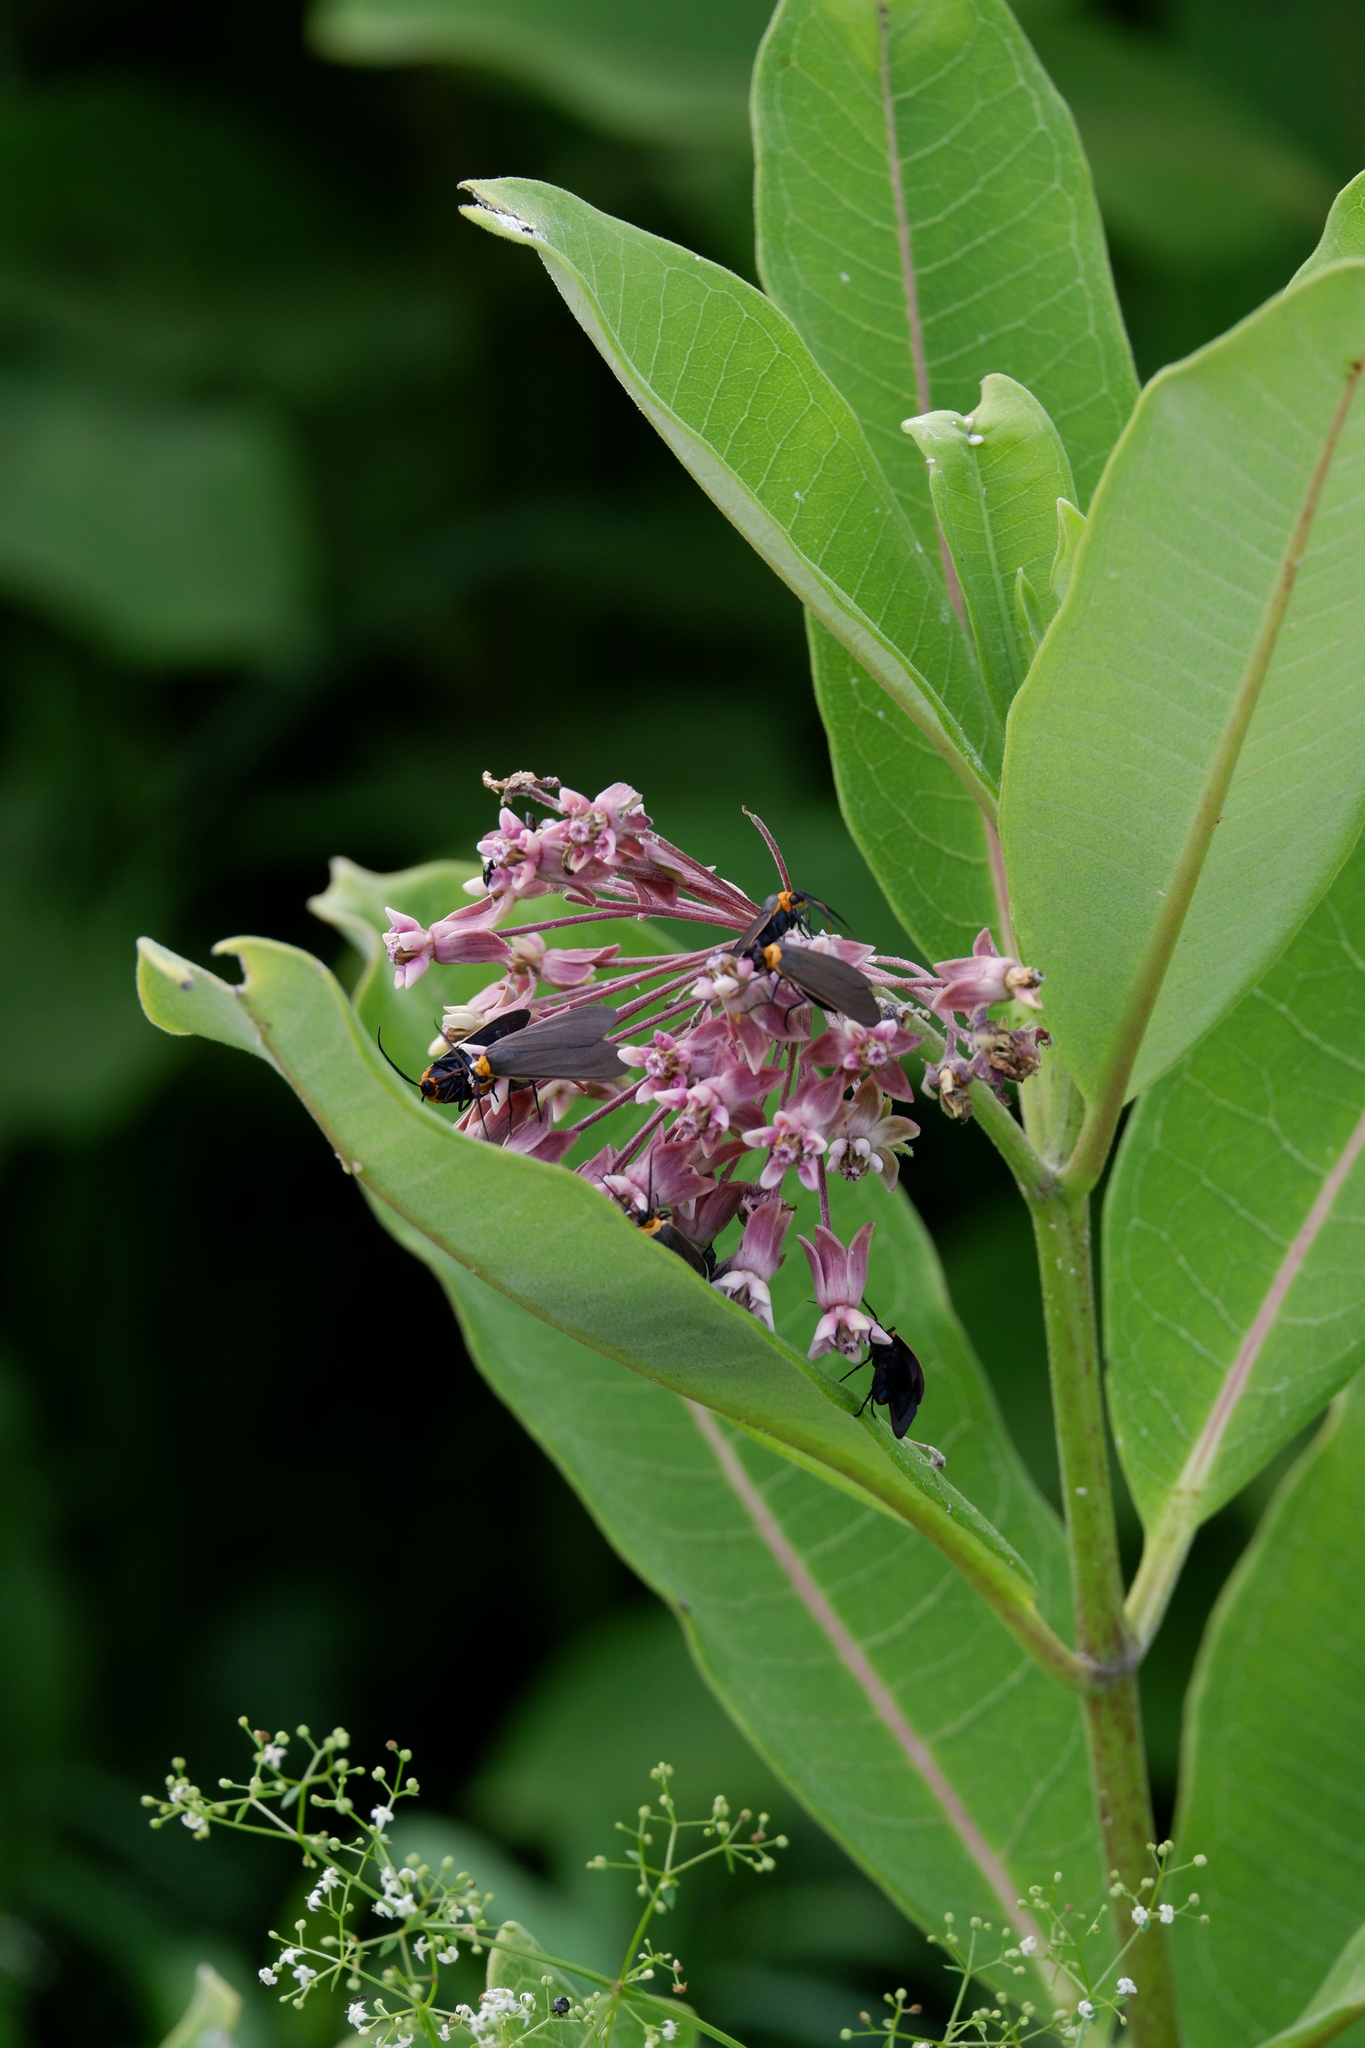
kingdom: Plantae
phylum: Tracheophyta
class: Magnoliopsida
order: Gentianales
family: Apocynaceae
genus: Asclepias
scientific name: Asclepias syriaca
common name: Common milkweed
